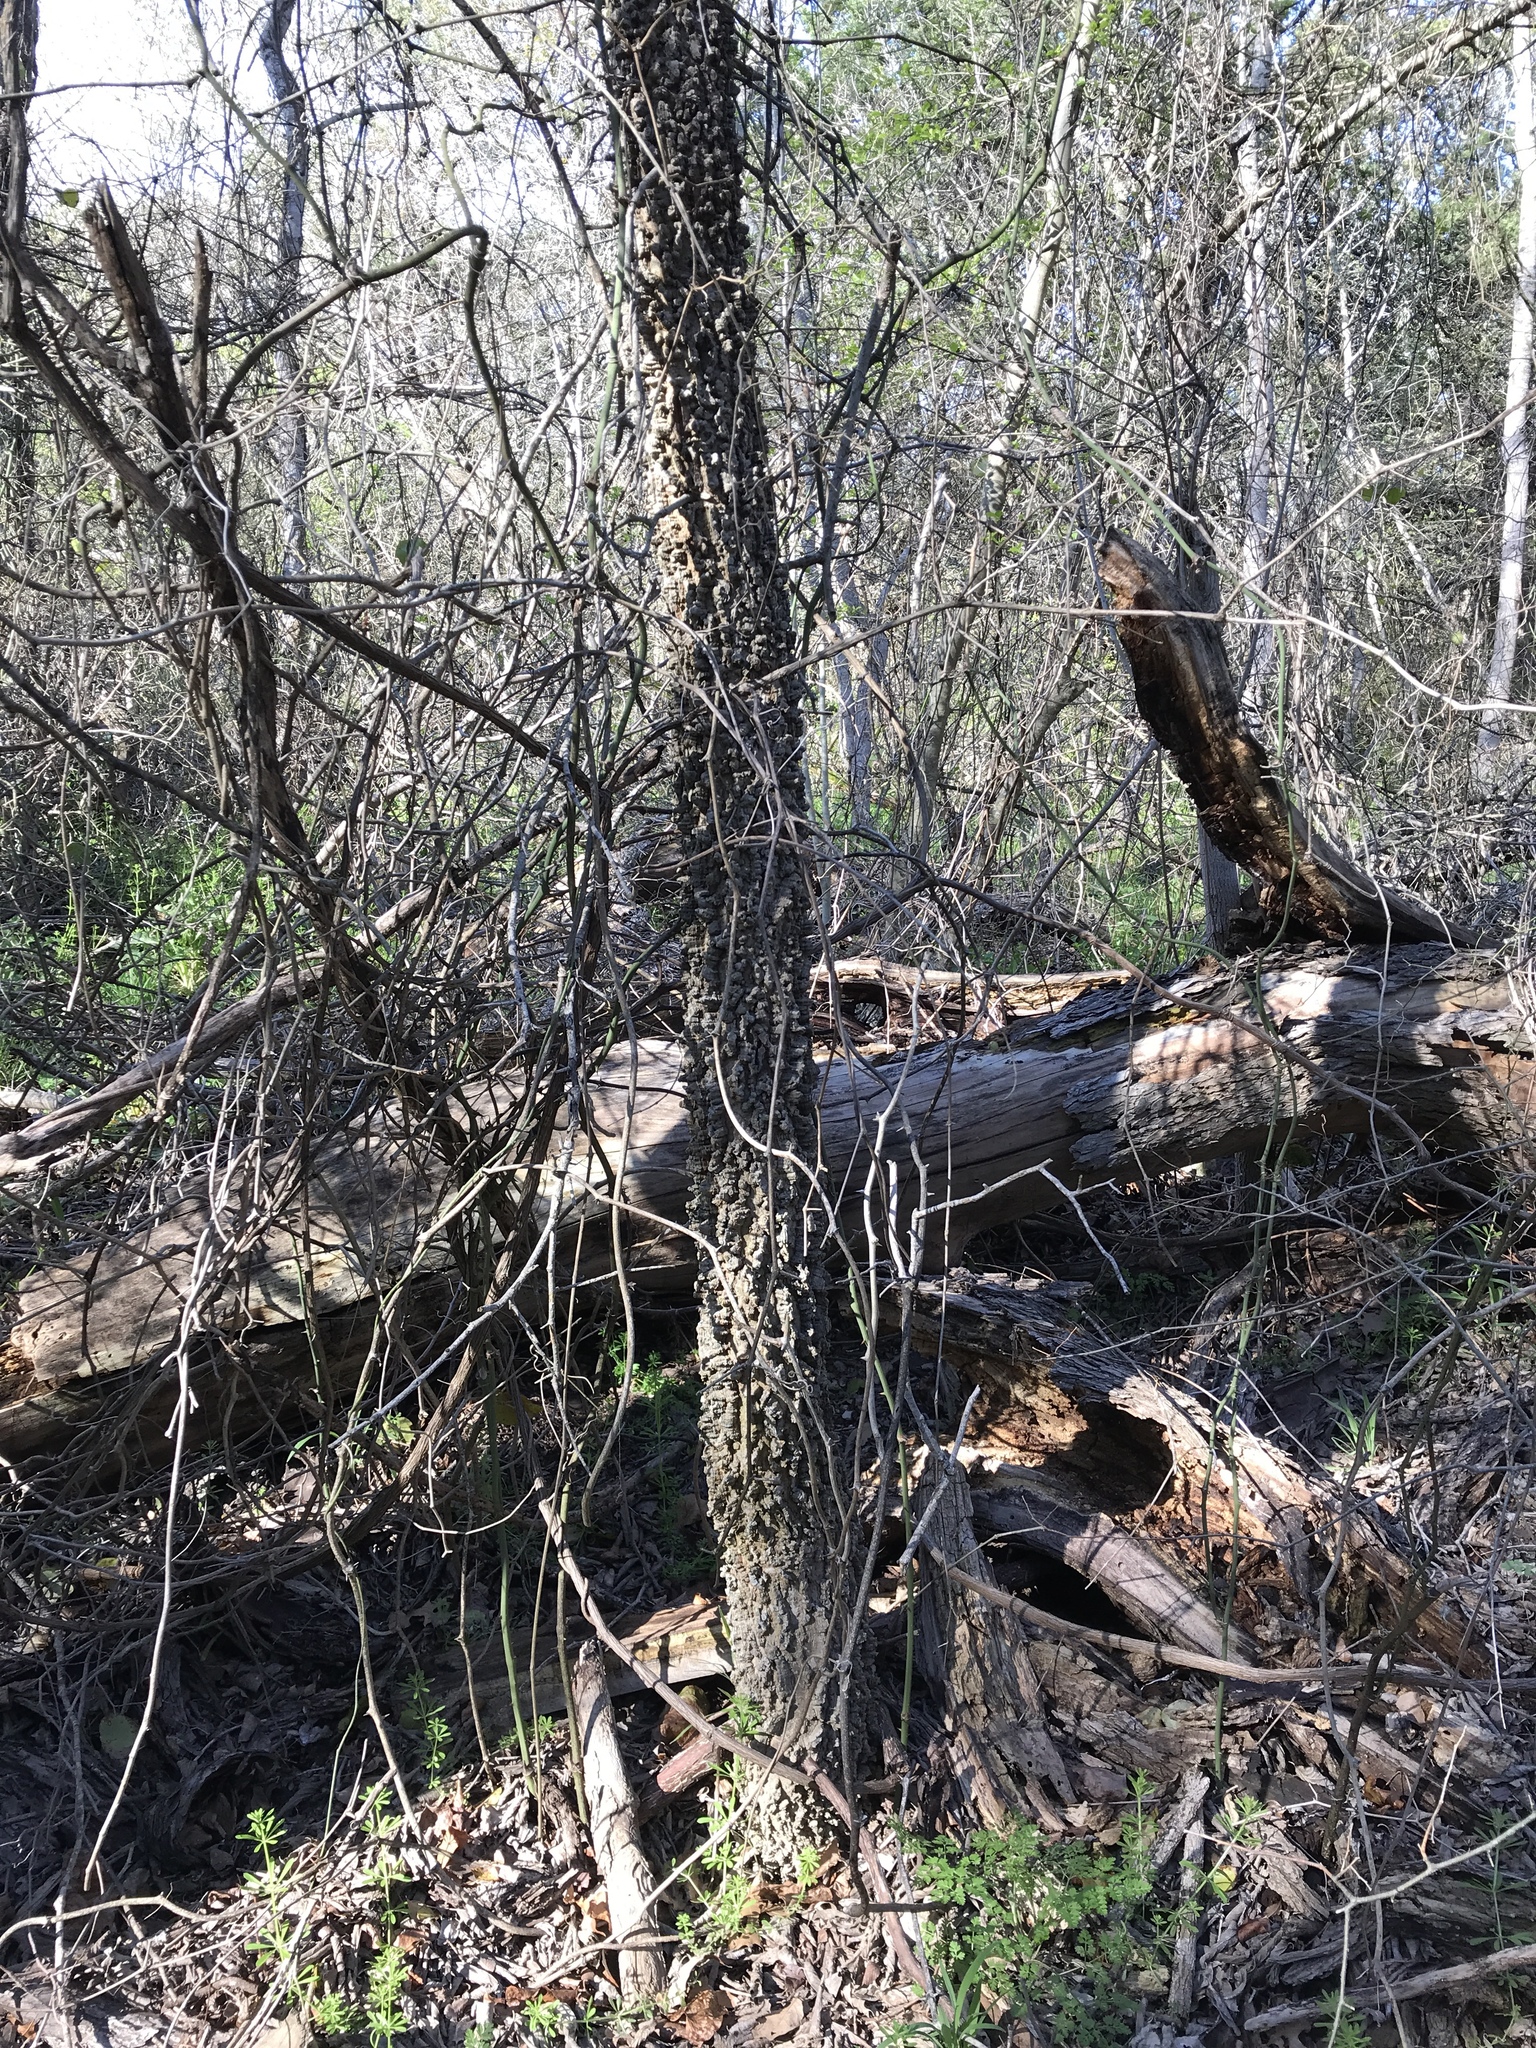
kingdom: Plantae
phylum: Tracheophyta
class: Magnoliopsida
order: Rosales
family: Cannabaceae
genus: Celtis
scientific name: Celtis laevigata
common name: Sugarberry
